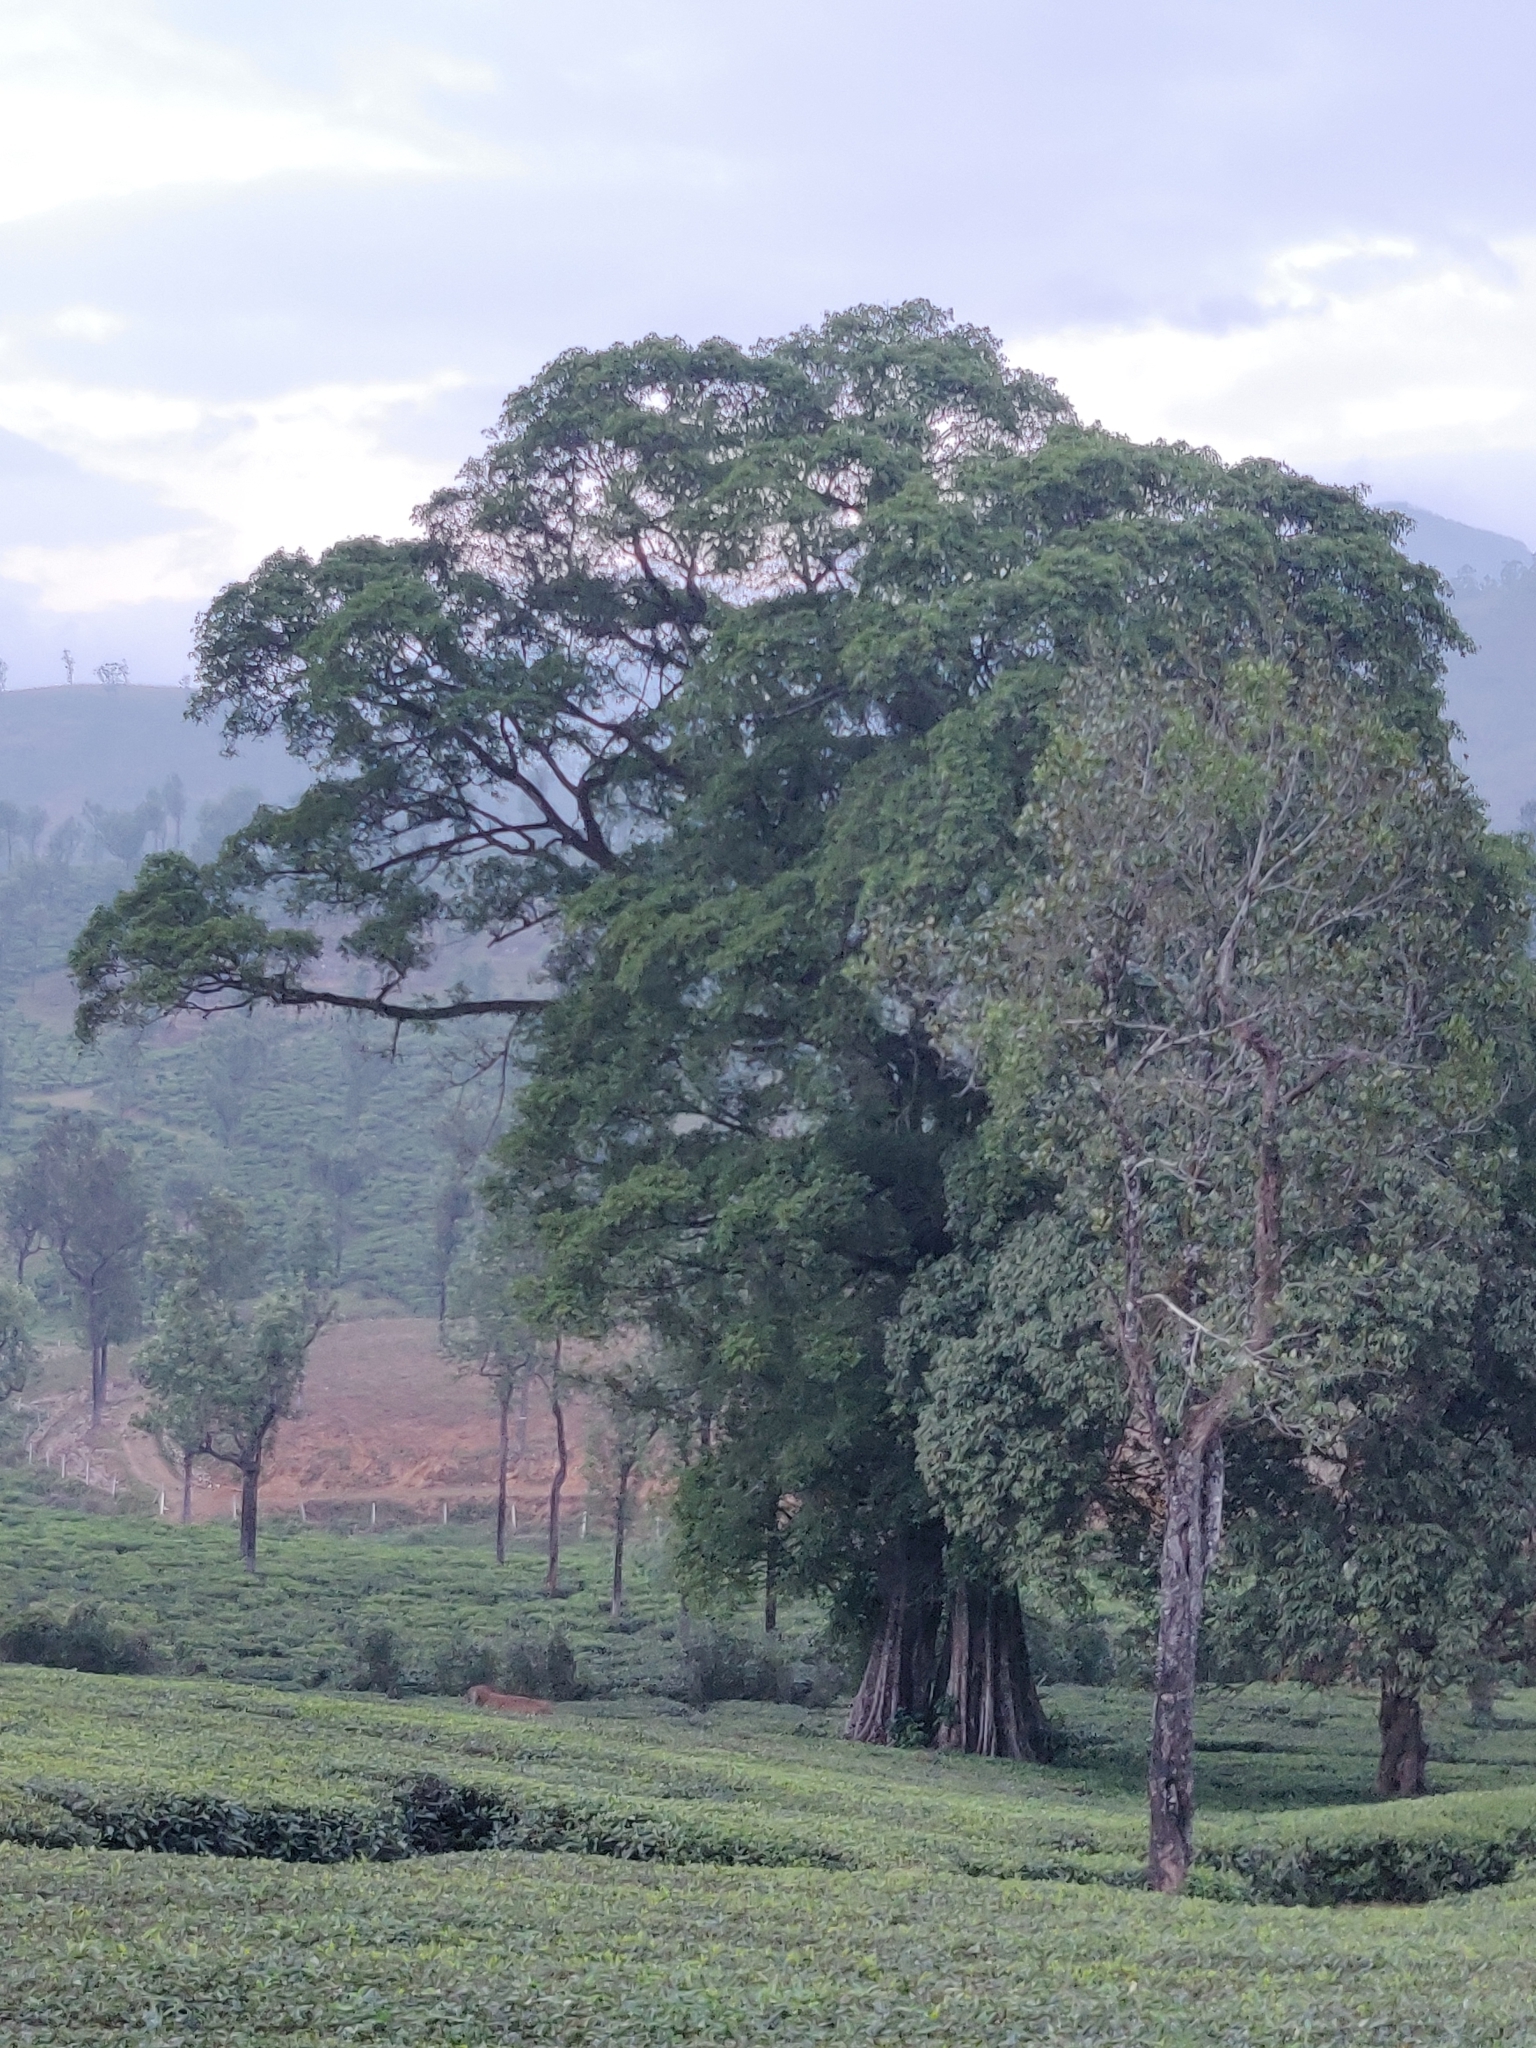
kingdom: Animalia
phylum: Chordata
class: Mammalia
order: Proboscidea
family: Elephantidae
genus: Elephas
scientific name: Elephas maximus
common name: Asian elephant
